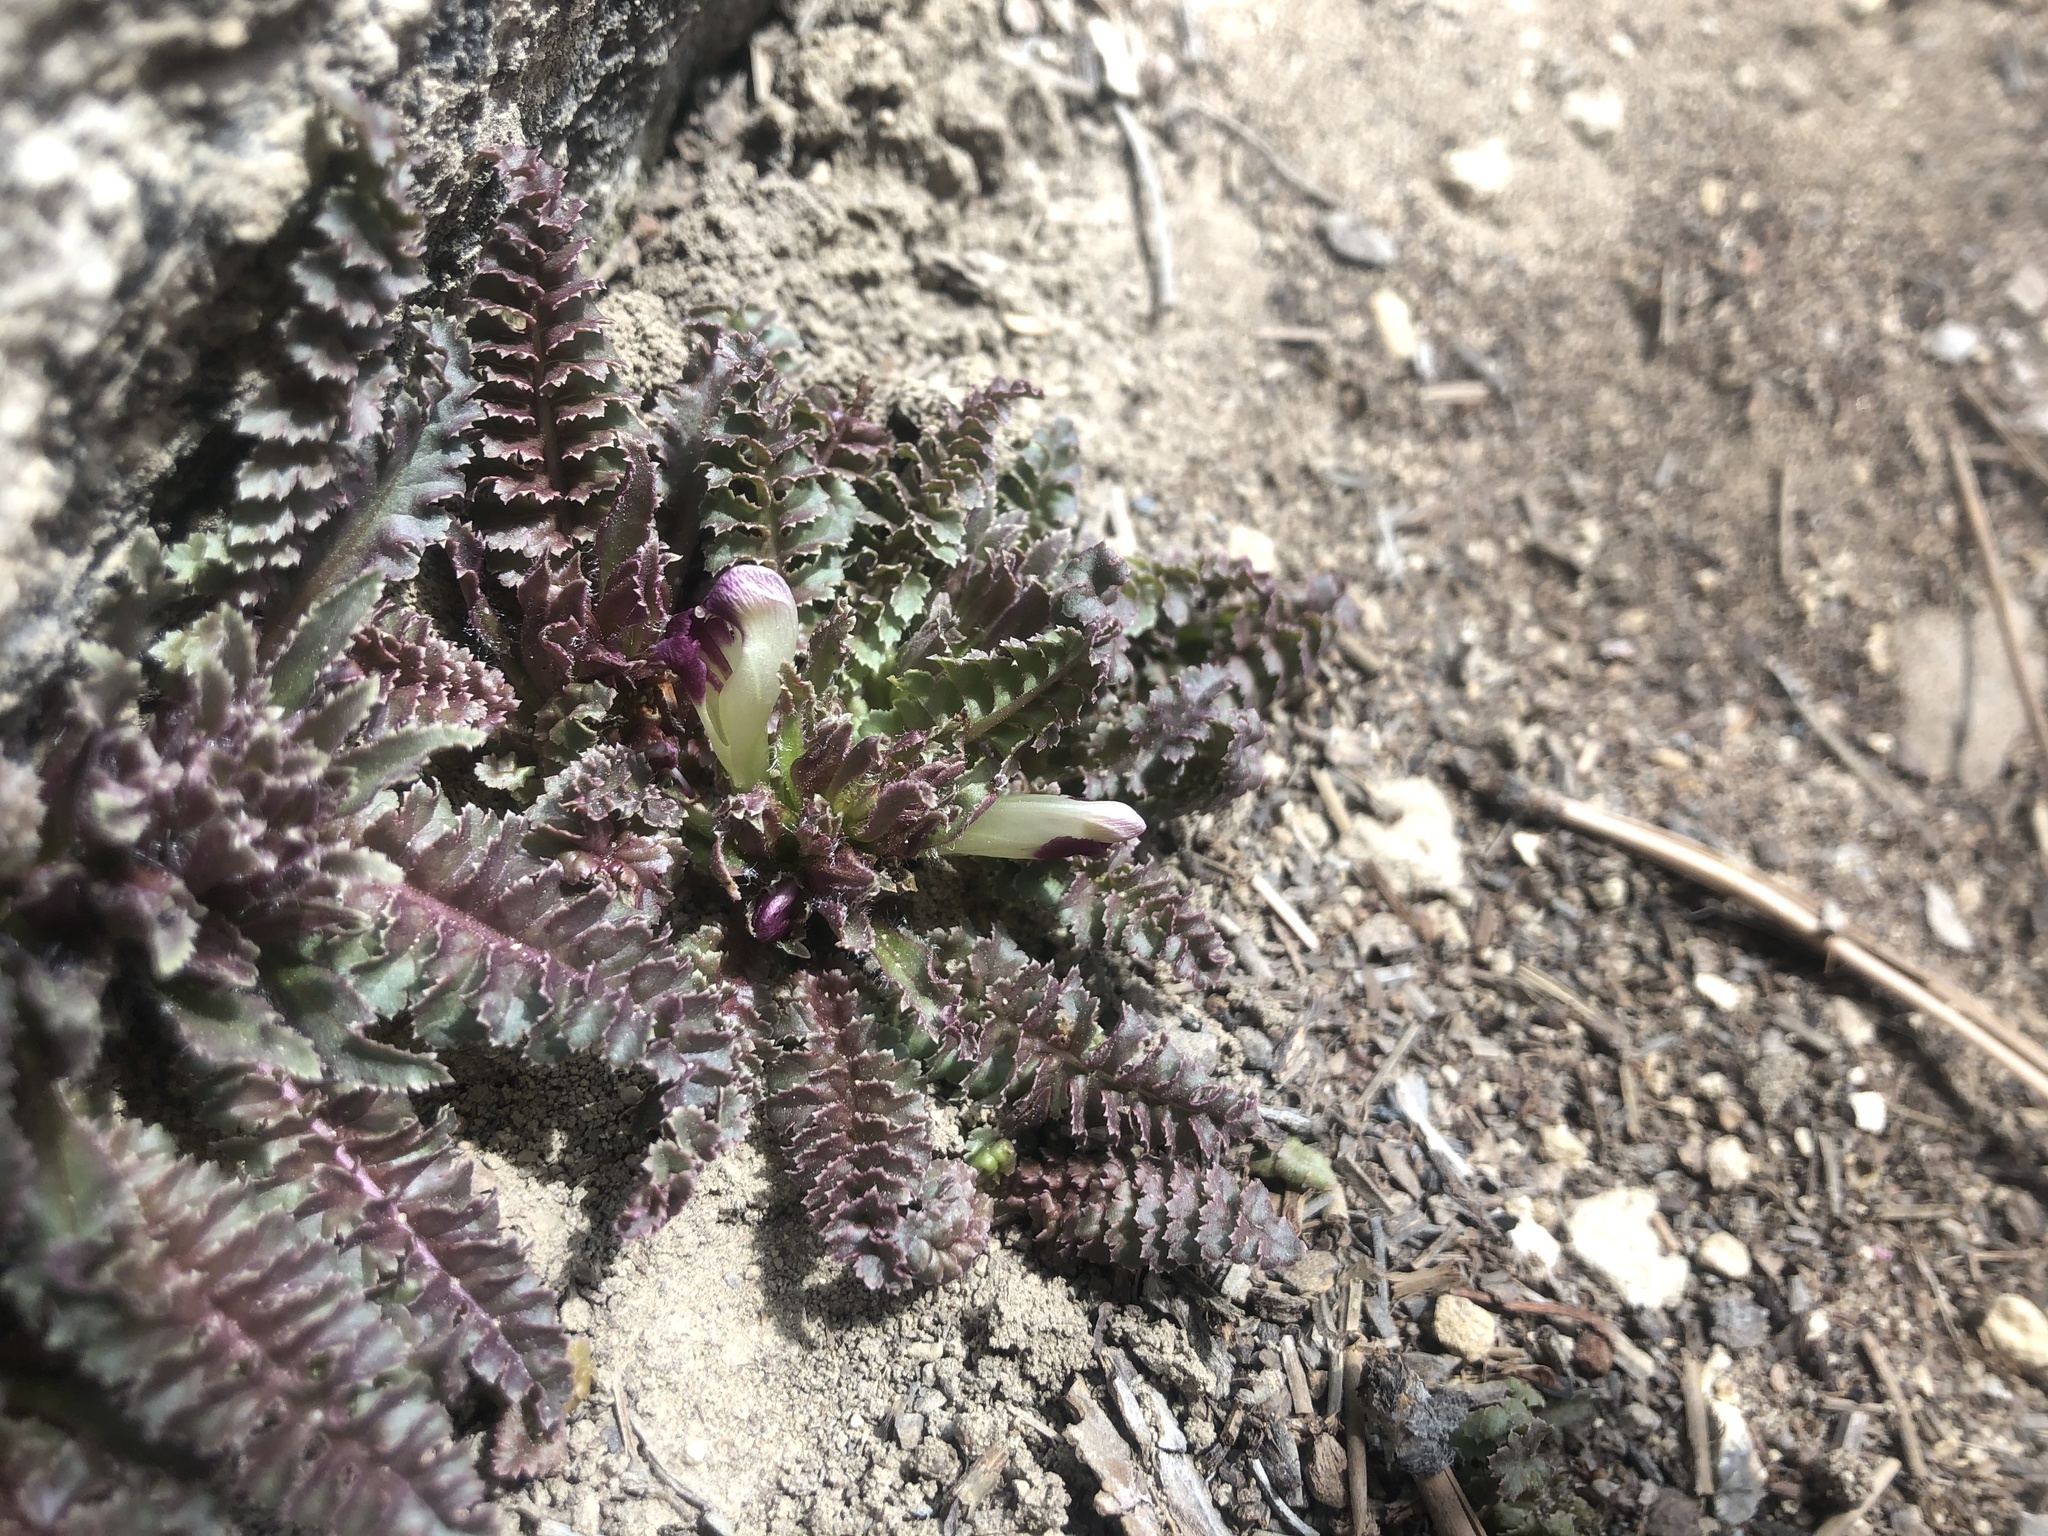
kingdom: Plantae
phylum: Tracheophyta
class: Magnoliopsida
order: Lamiales
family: Orobanchaceae
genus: Pedicularis
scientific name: Pedicularis centranthera
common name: Dwarf lousewort
